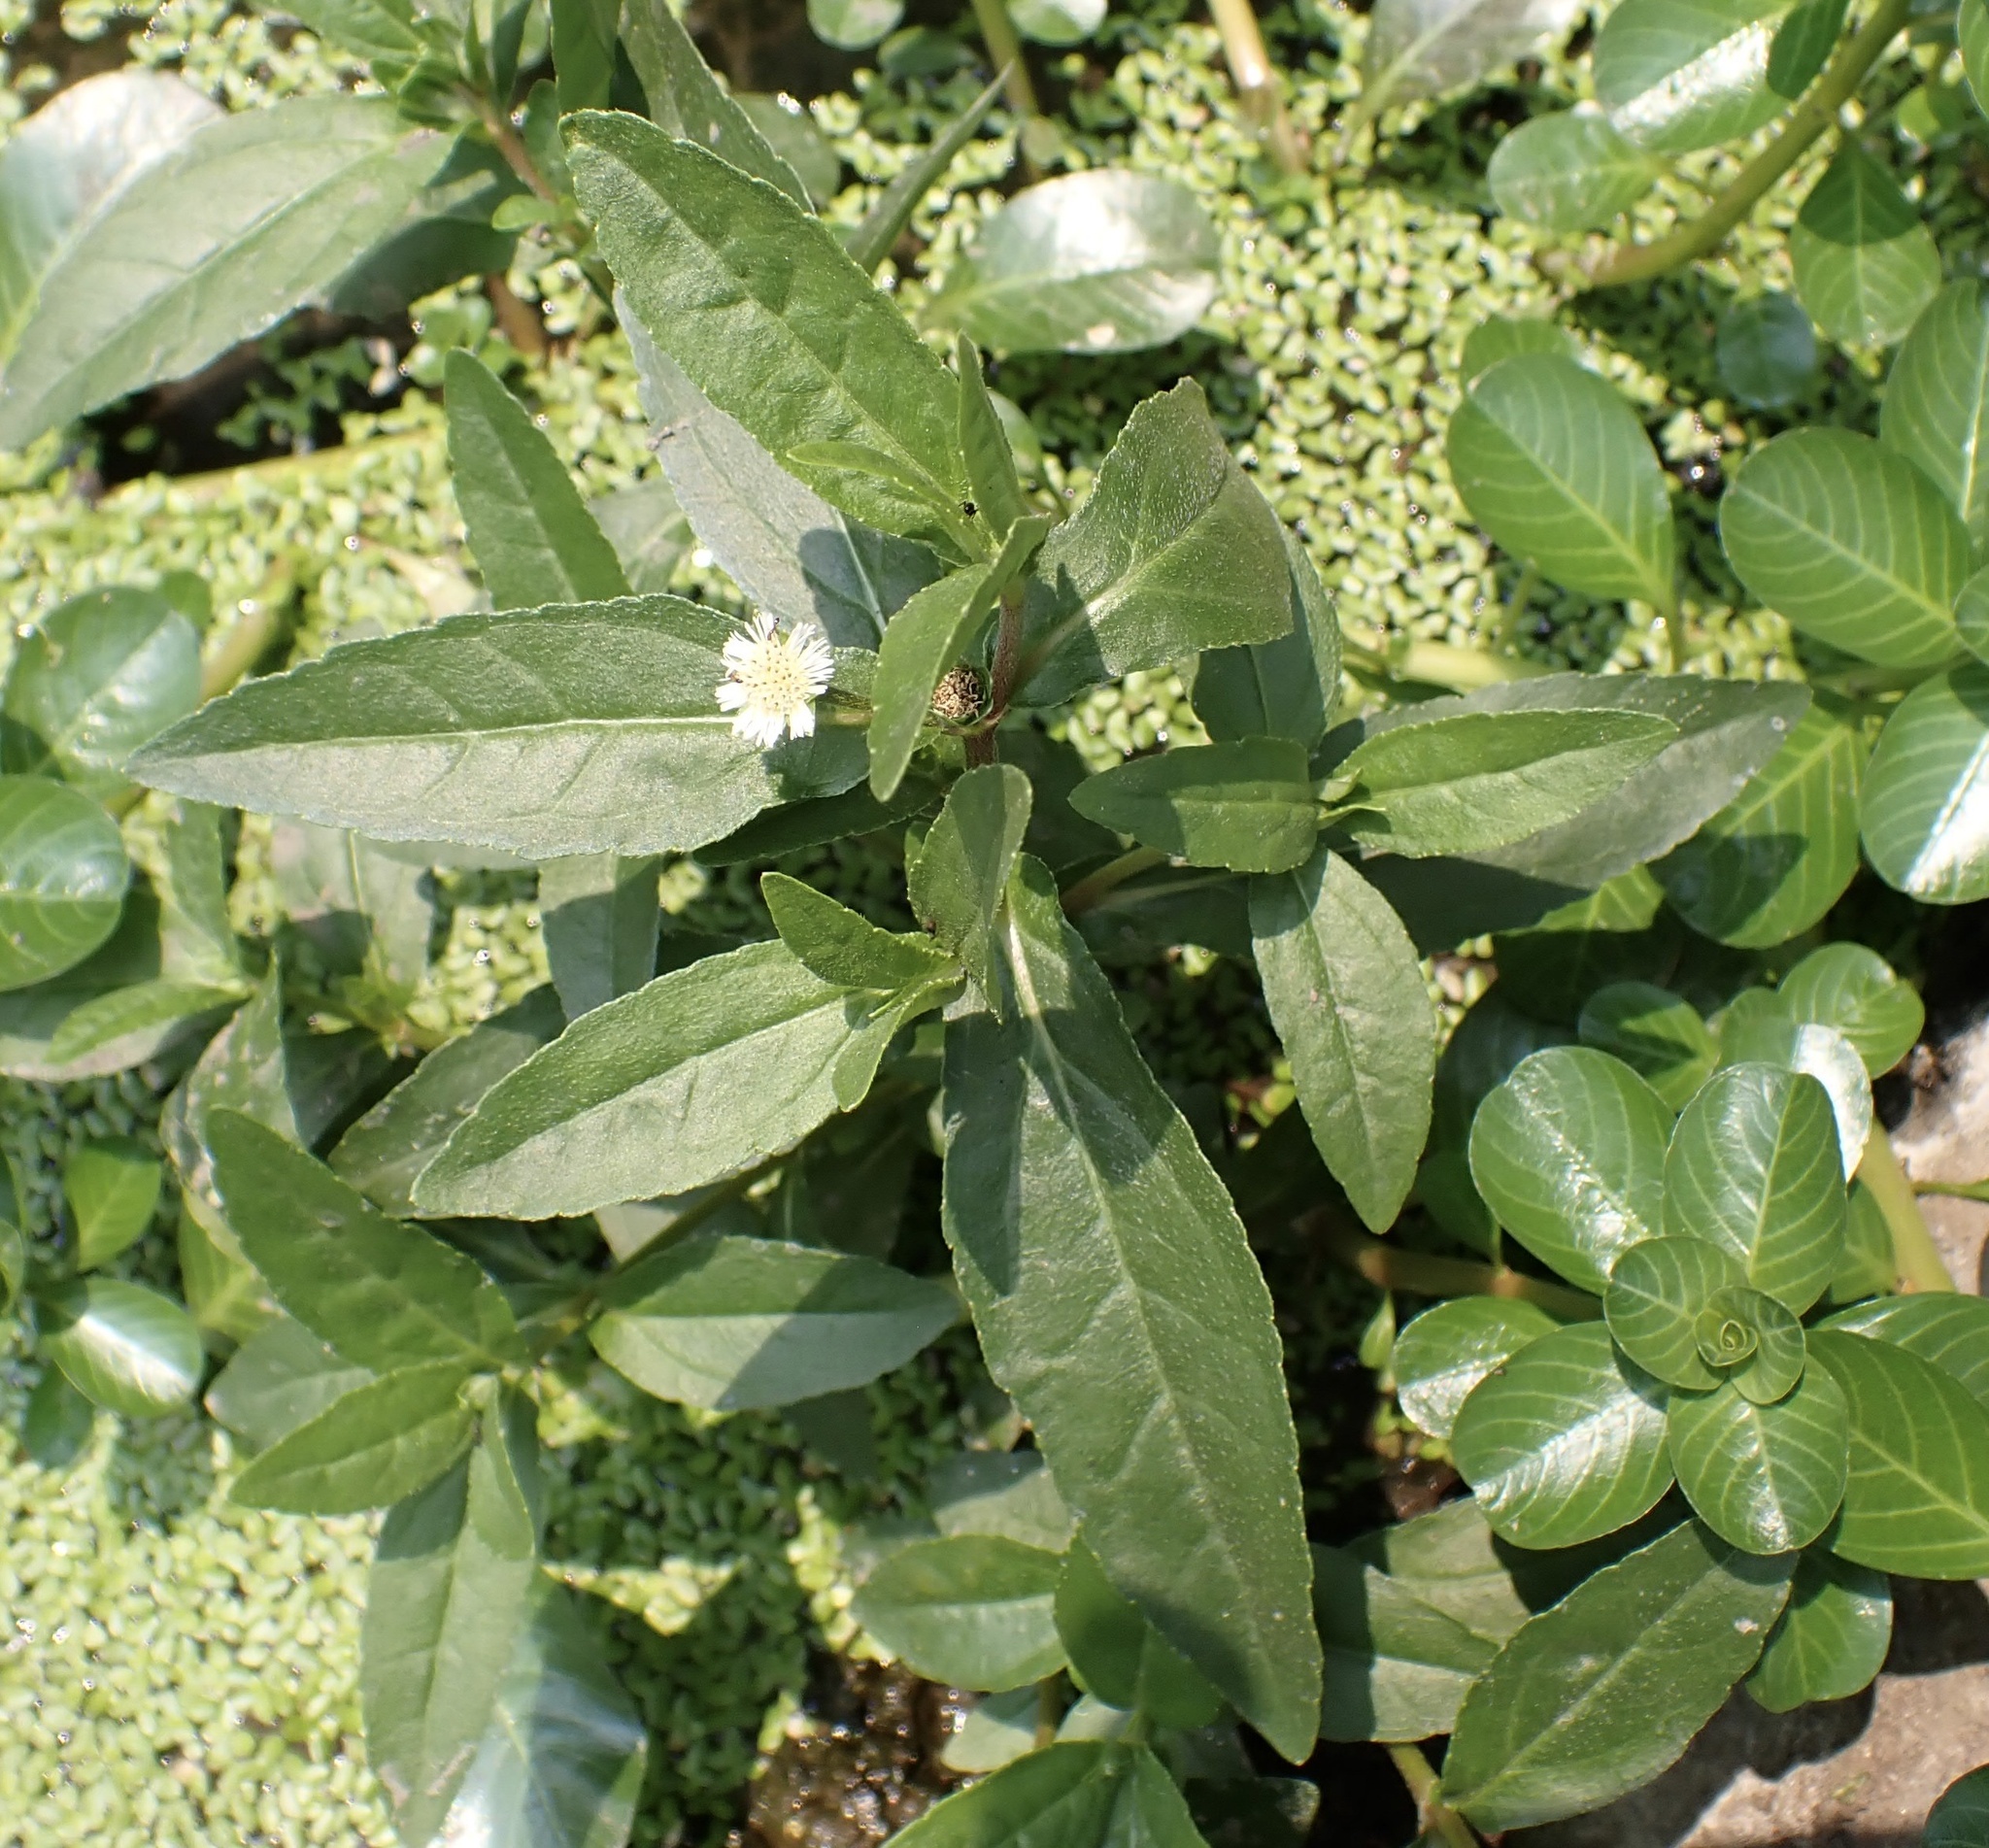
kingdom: Plantae
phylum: Tracheophyta
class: Magnoliopsida
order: Asterales
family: Asteraceae
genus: Eclipta
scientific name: Eclipta prostrata
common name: False daisy
